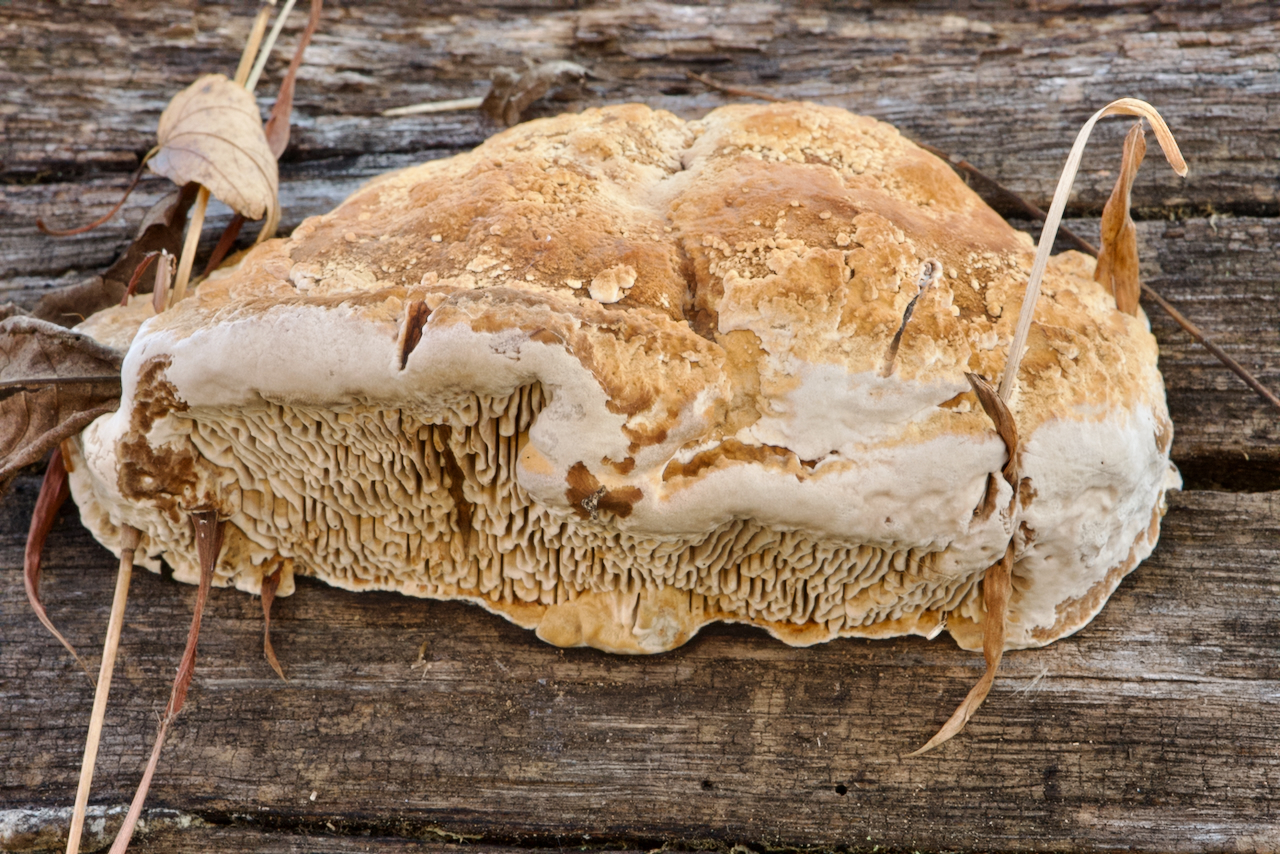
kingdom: Fungi
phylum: Basidiomycota
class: Agaricomycetes
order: Polyporales
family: Fomitopsidaceae
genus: Fomitopsis
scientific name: Fomitopsis
